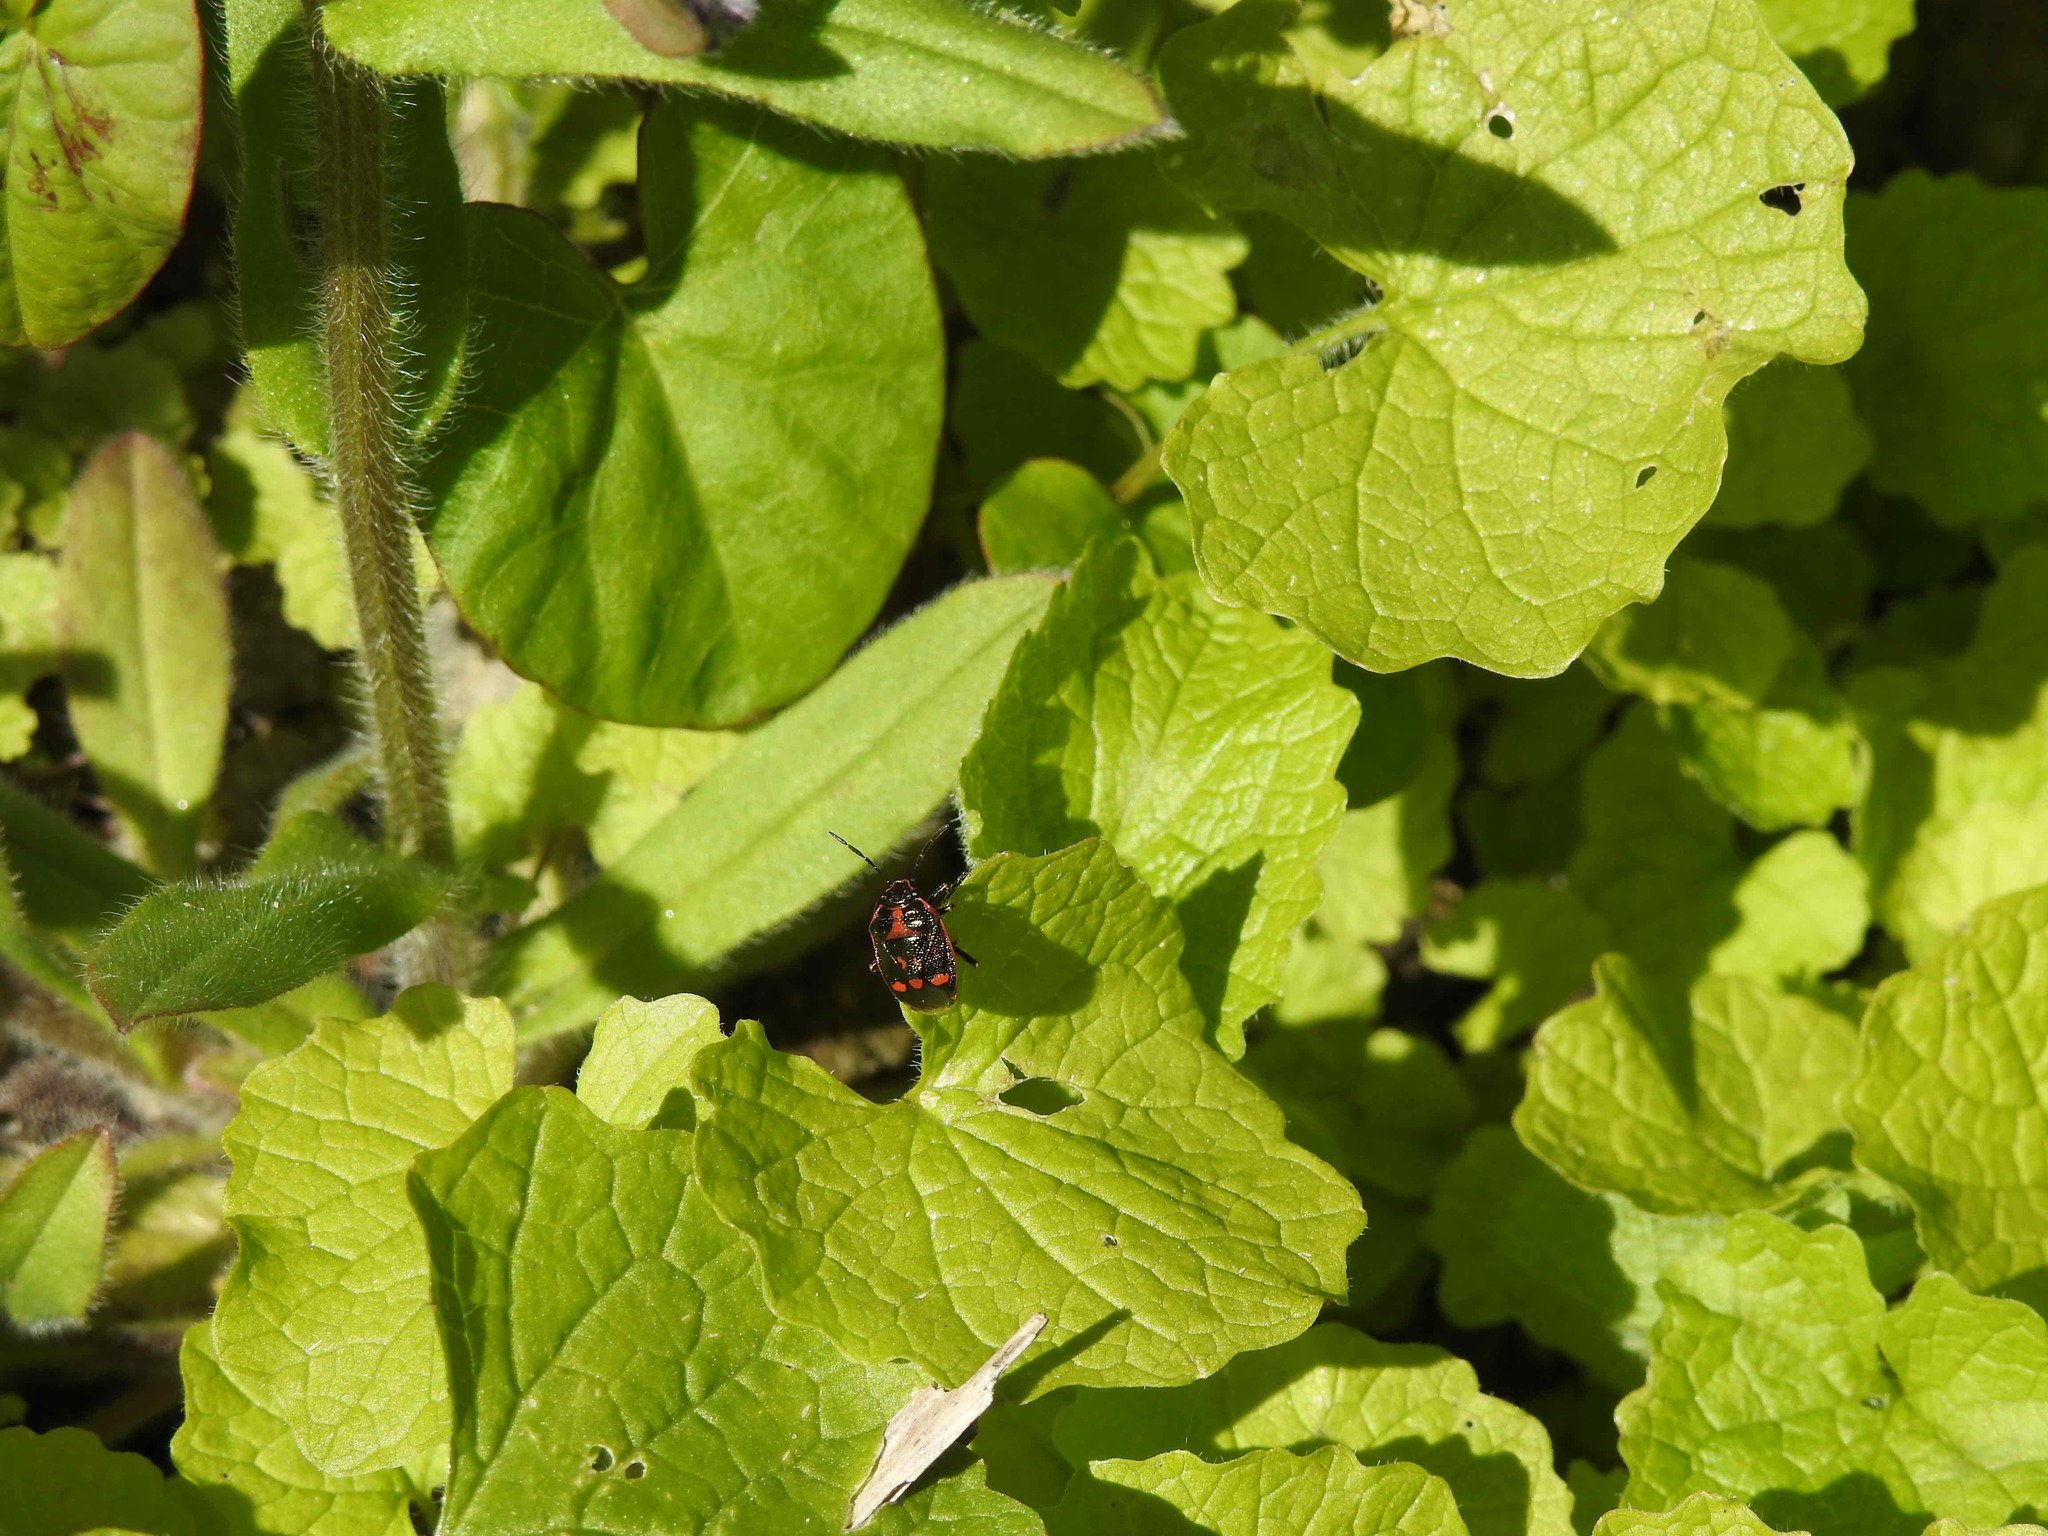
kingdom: Animalia
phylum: Arthropoda
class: Insecta
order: Hemiptera
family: Pentatomidae
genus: Eurydema
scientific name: Eurydema oleracea
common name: Cabbage bug
